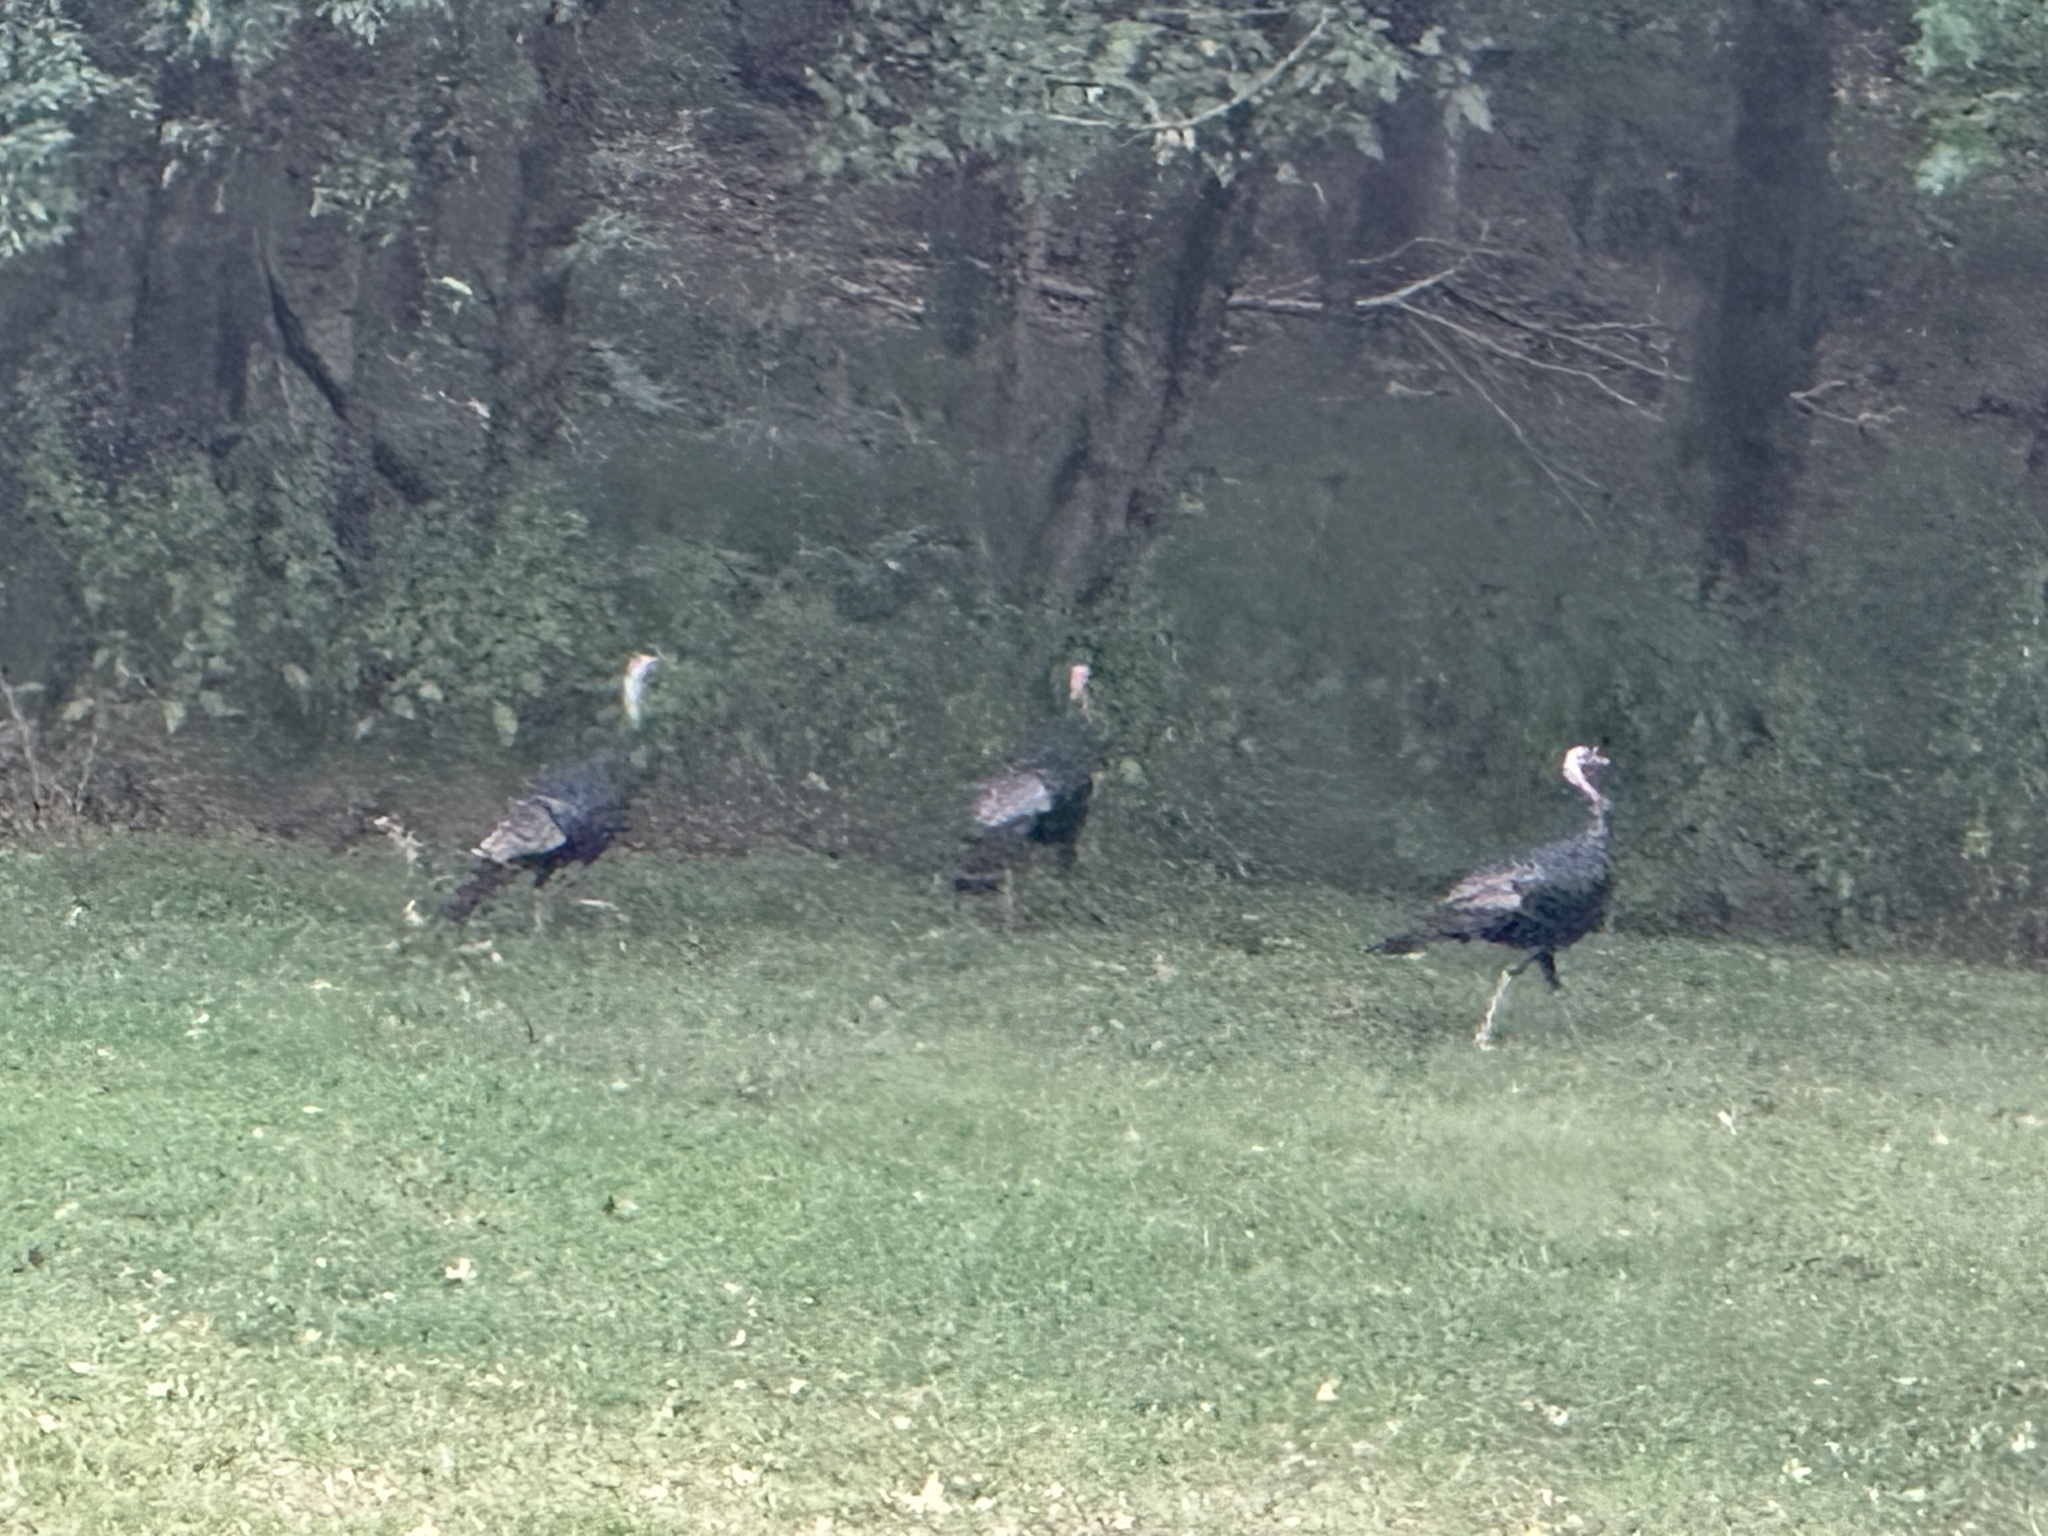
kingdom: Animalia
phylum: Chordata
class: Aves
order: Galliformes
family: Phasianidae
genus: Meleagris
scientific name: Meleagris gallopavo
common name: Wild turkey
